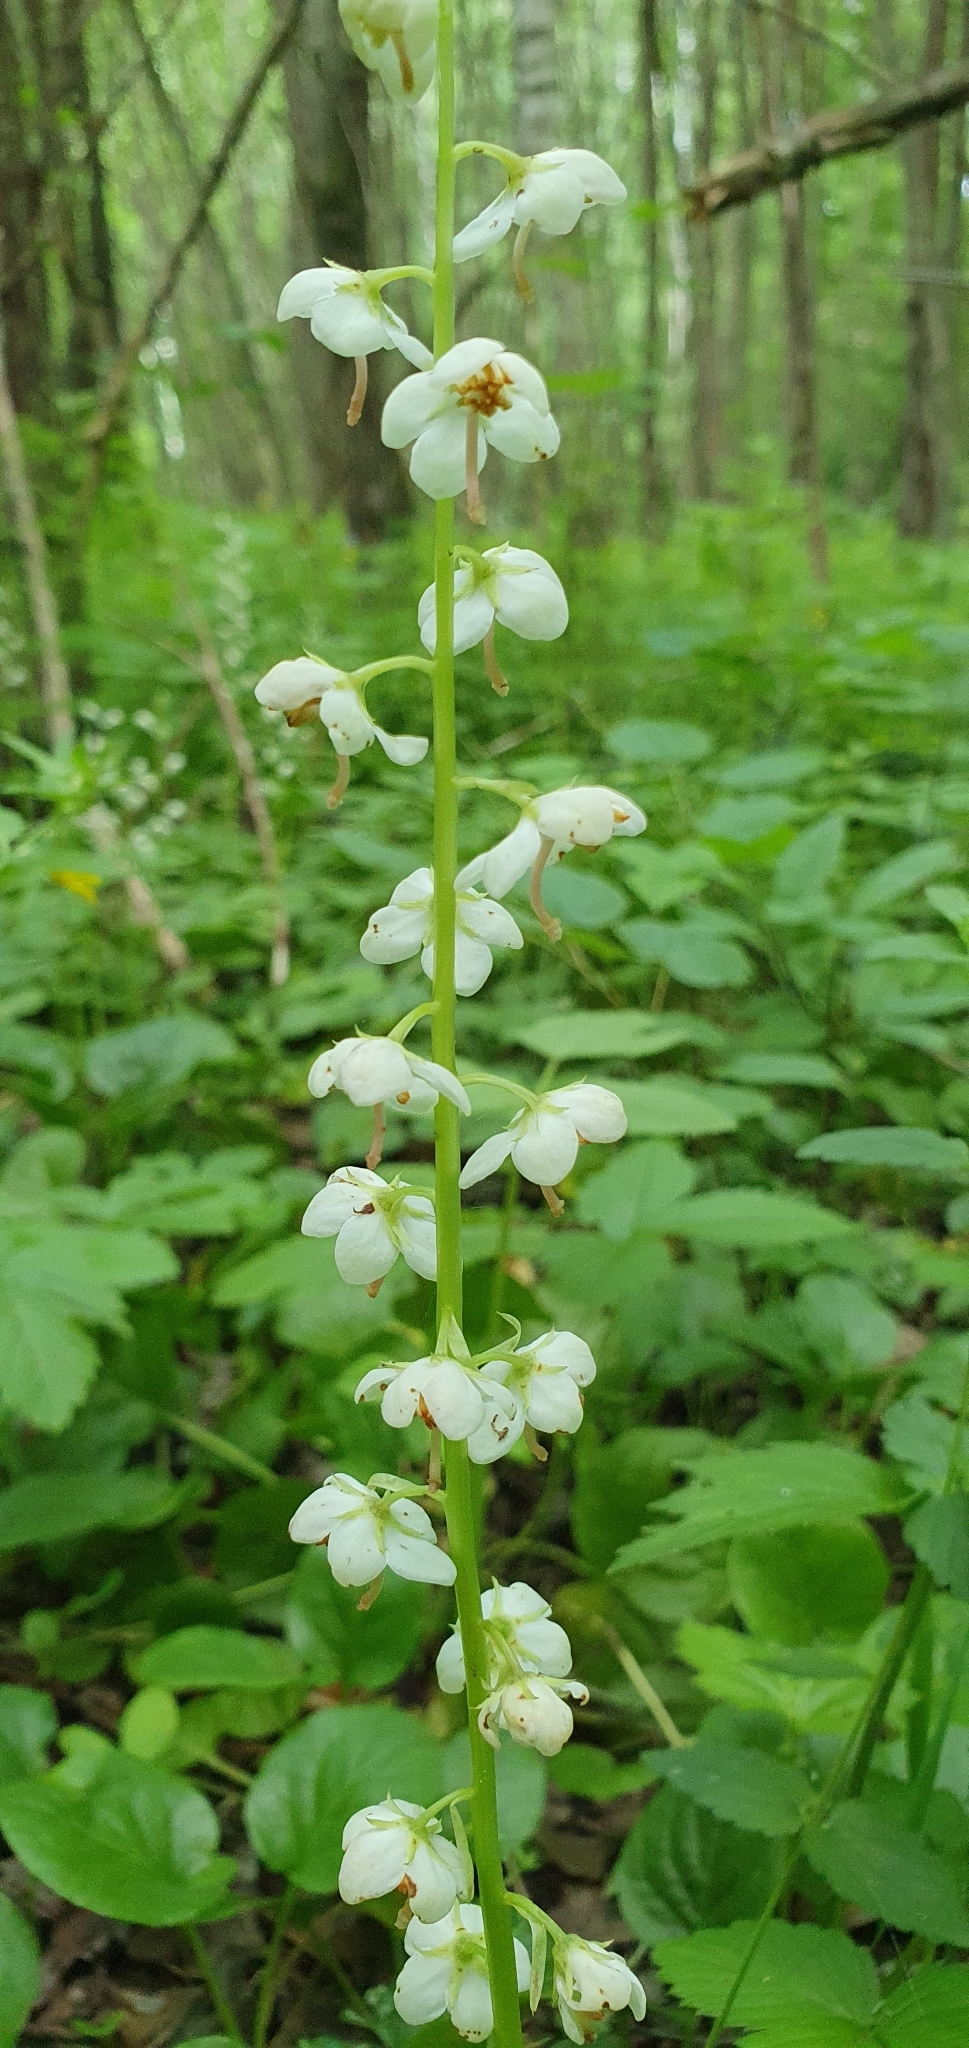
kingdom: Plantae
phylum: Tracheophyta
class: Magnoliopsida
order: Ericales
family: Ericaceae
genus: Pyrola
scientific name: Pyrola rotundifolia
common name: Round-leaved wintergreen
